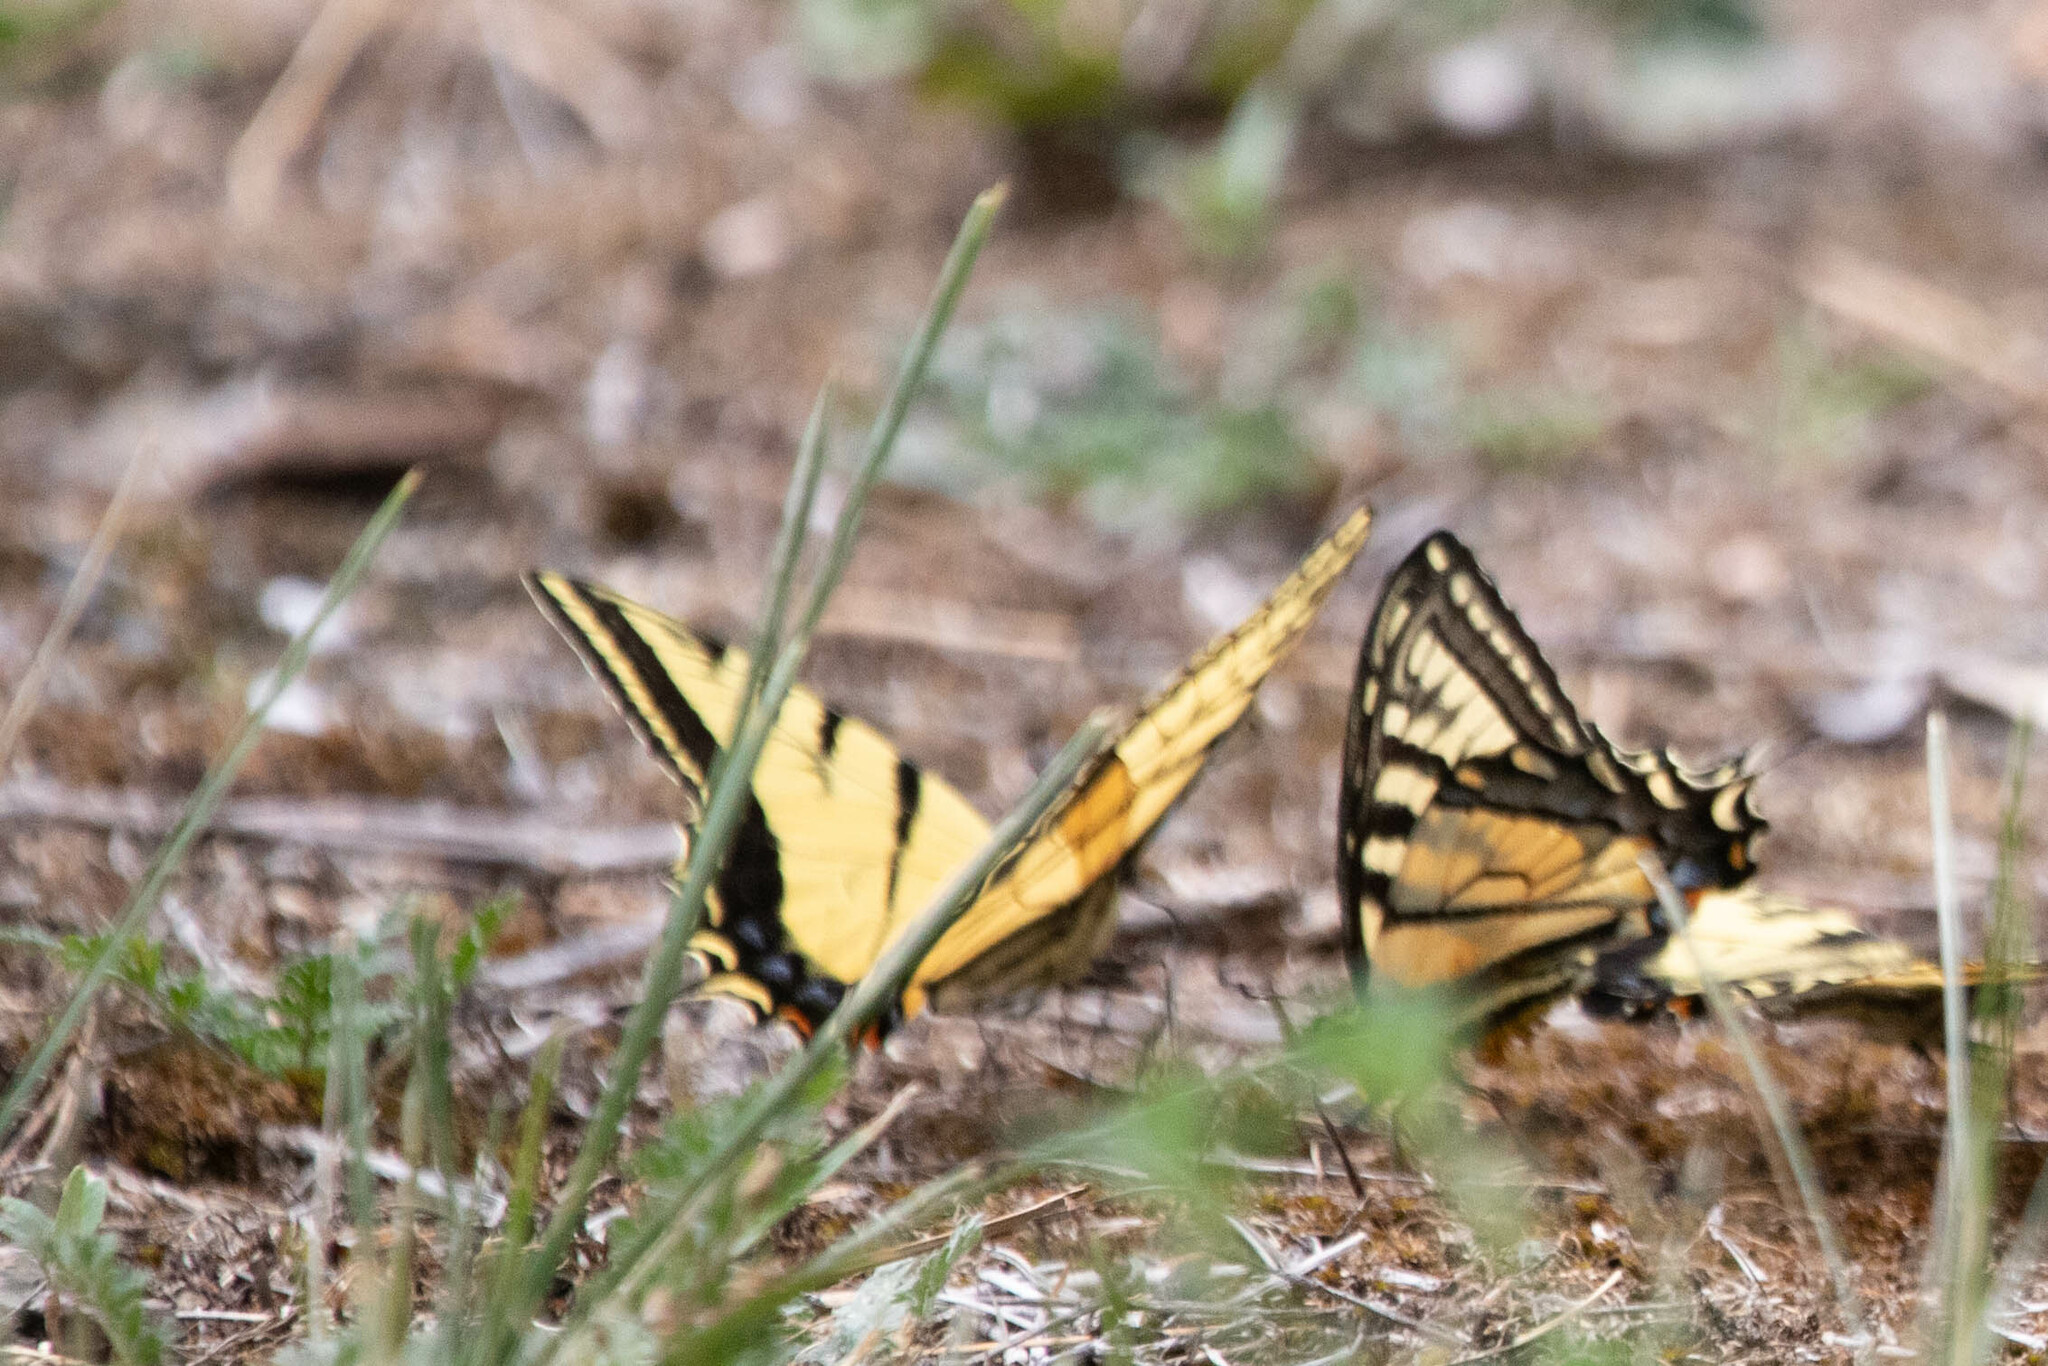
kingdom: Animalia
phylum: Arthropoda
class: Insecta
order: Lepidoptera
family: Papilionidae
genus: Papilio
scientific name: Papilio multicaudata
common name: Two-tailed tiger swallowtail
